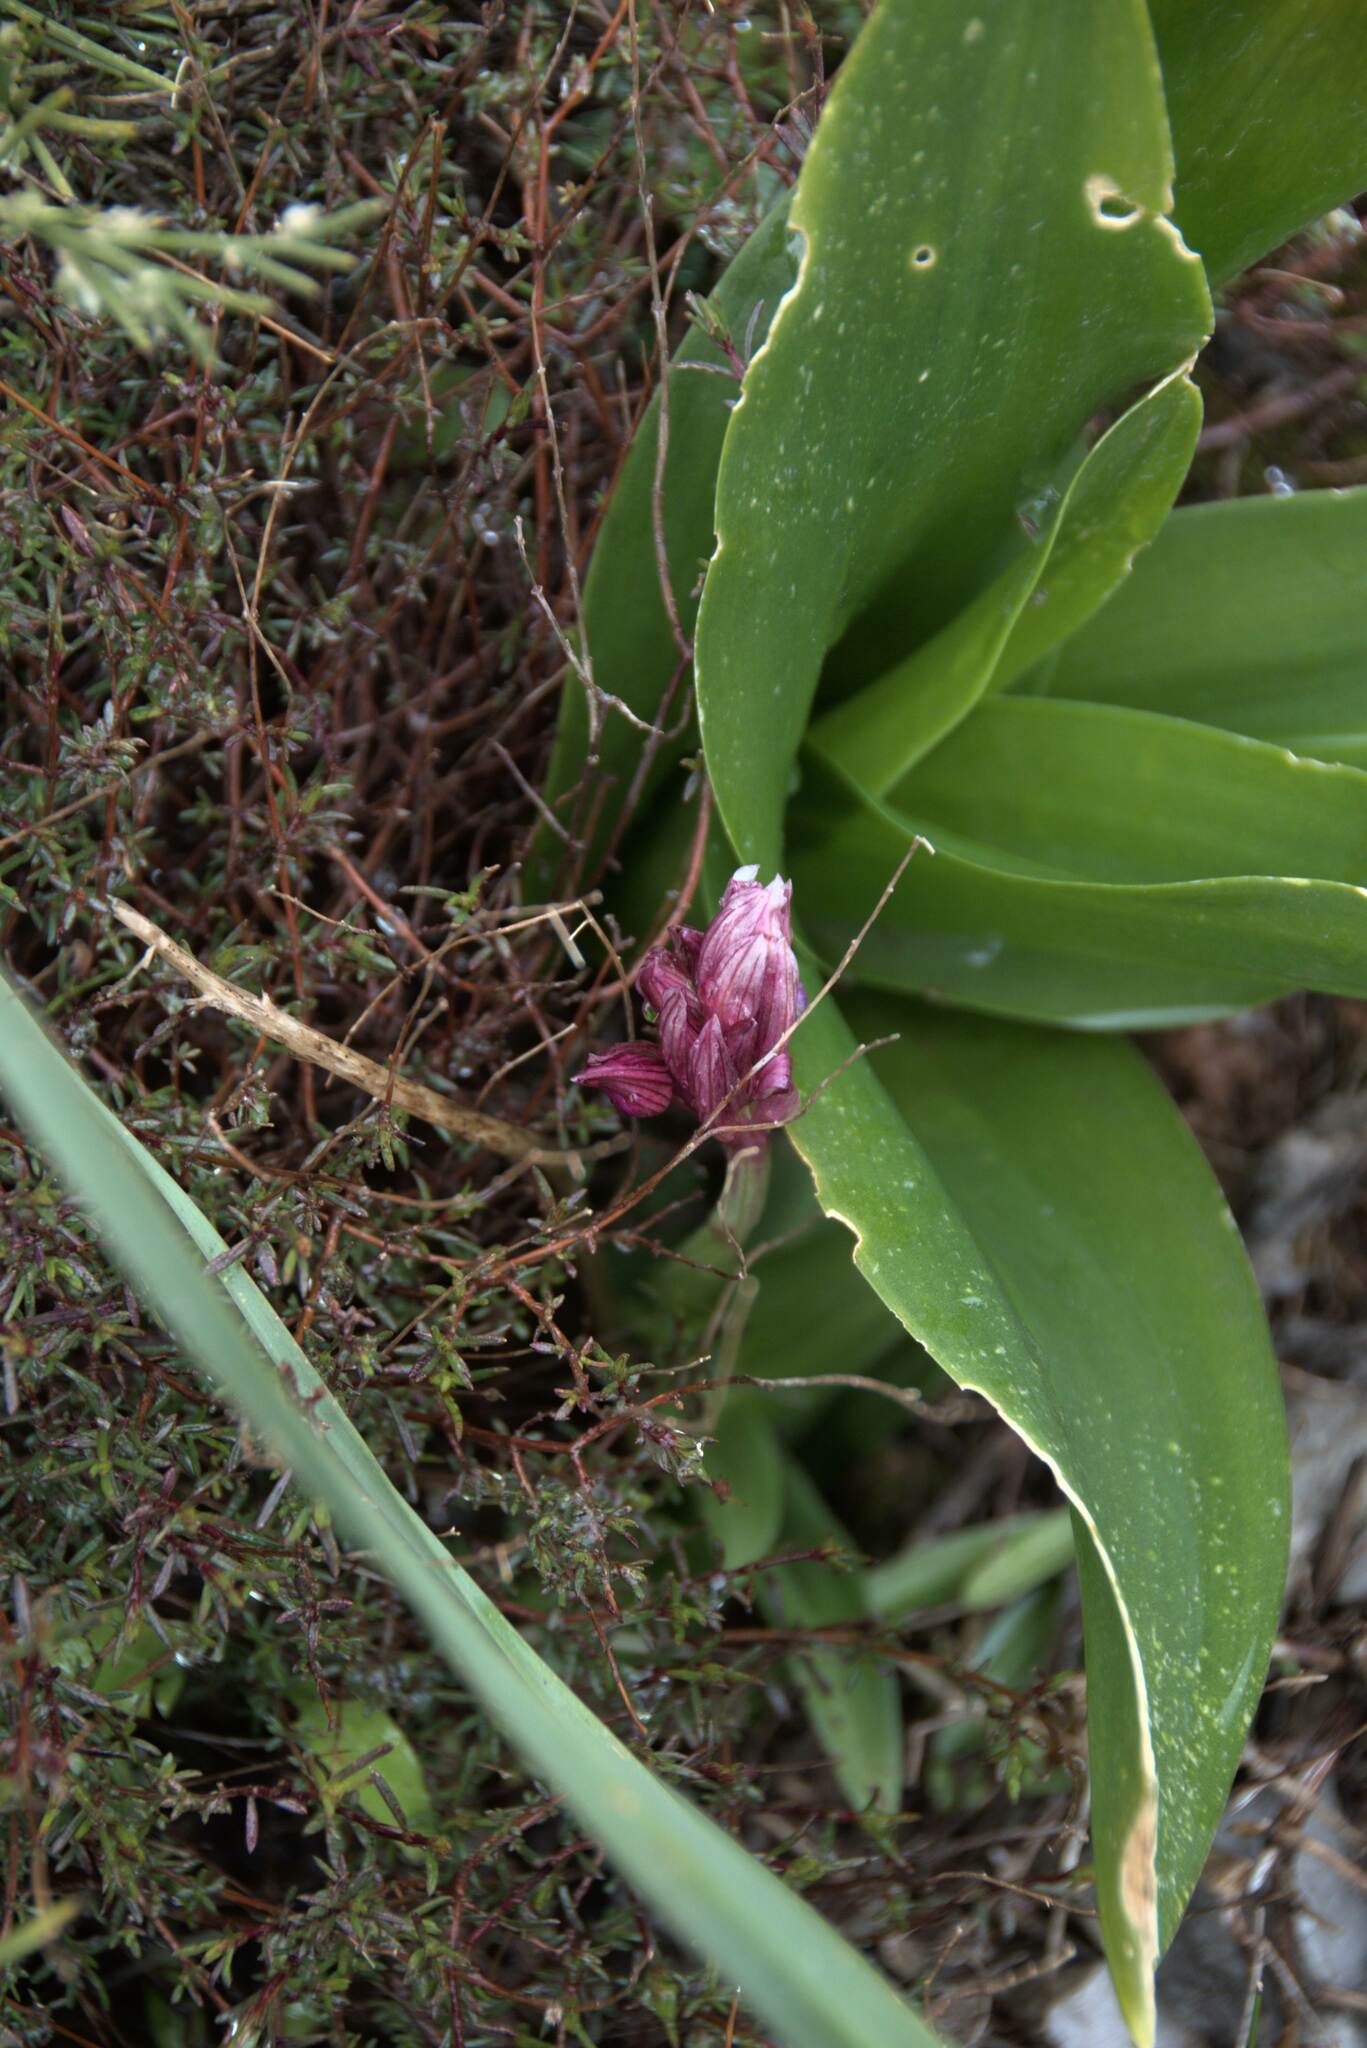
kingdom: Plantae
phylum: Tracheophyta
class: Liliopsida
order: Asparagales
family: Orchidaceae
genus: Anacamptis
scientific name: Anacamptis papilionacea
